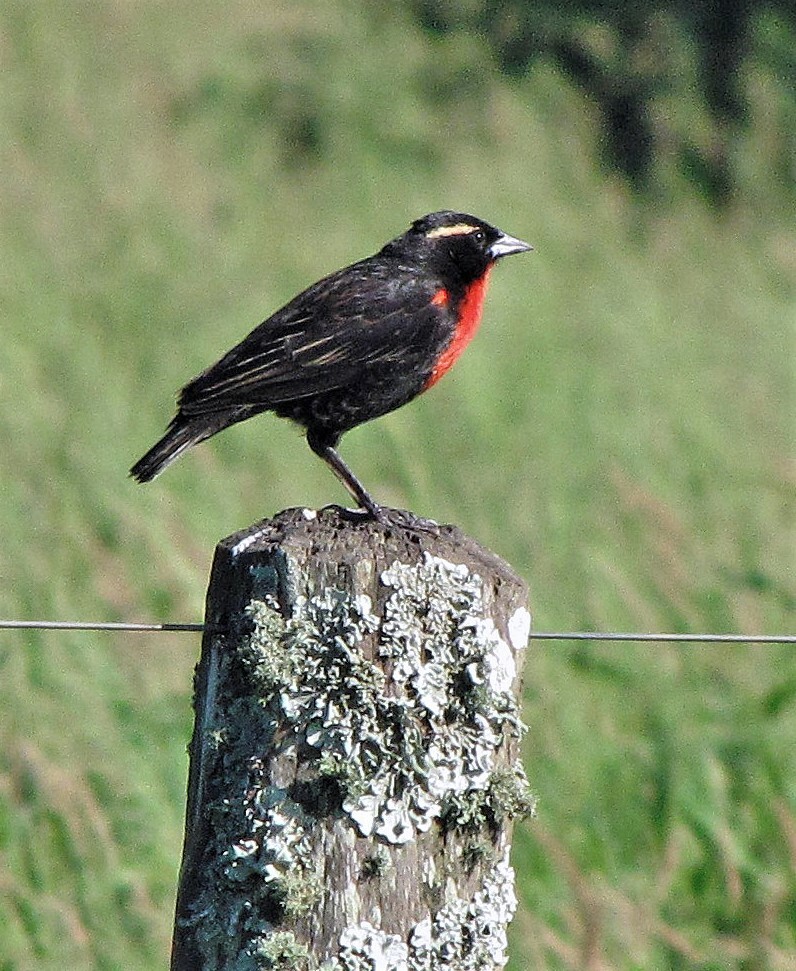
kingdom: Animalia
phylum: Chordata
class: Aves
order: Passeriformes
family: Icteridae
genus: Sturnella
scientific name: Sturnella superciliaris
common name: White-browed blackbird
